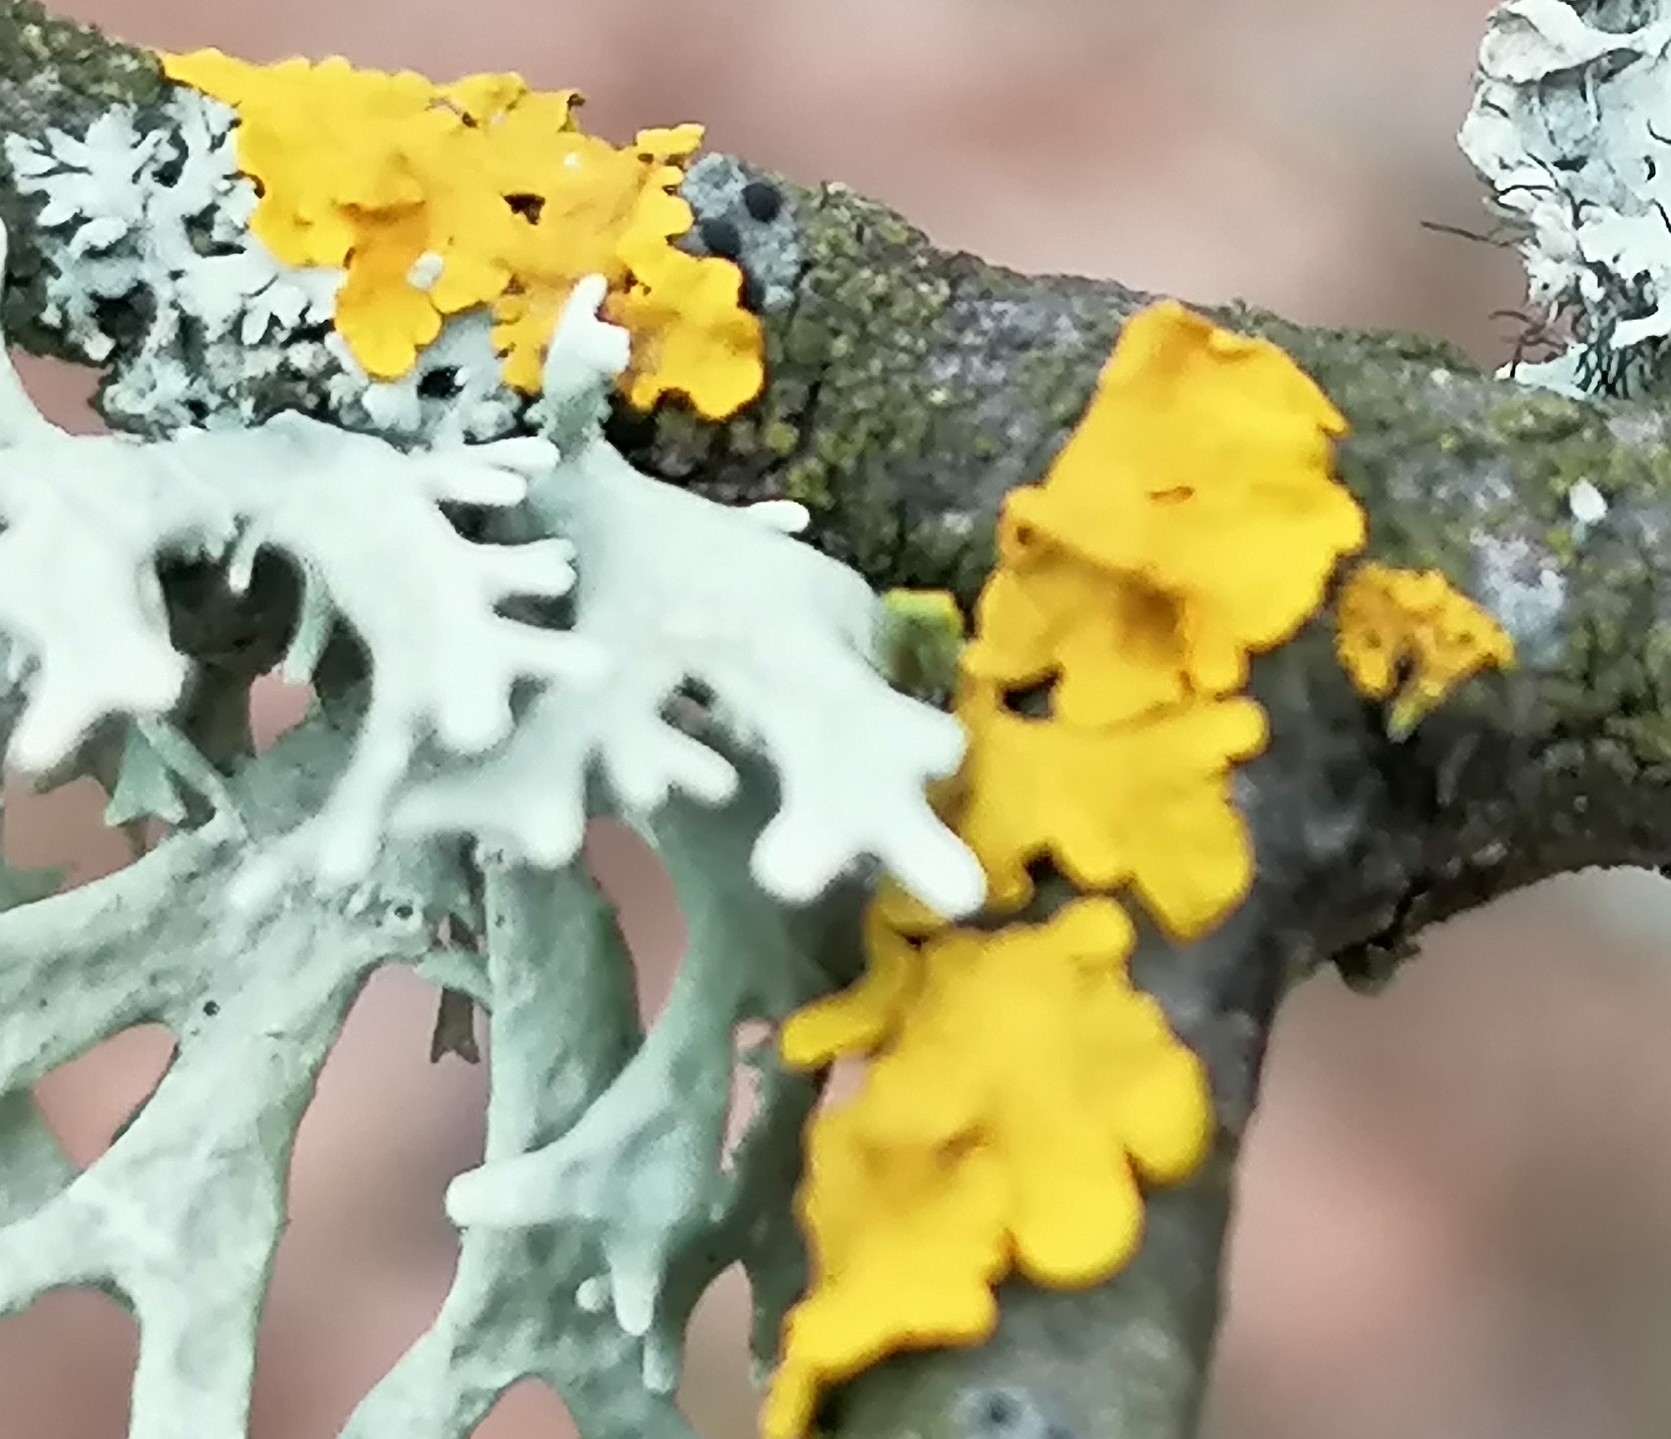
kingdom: Fungi
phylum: Ascomycota
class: Lecanoromycetes
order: Teloschistales
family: Teloschistaceae
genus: Xanthoria
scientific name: Xanthoria parietina
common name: Common orange lichen
